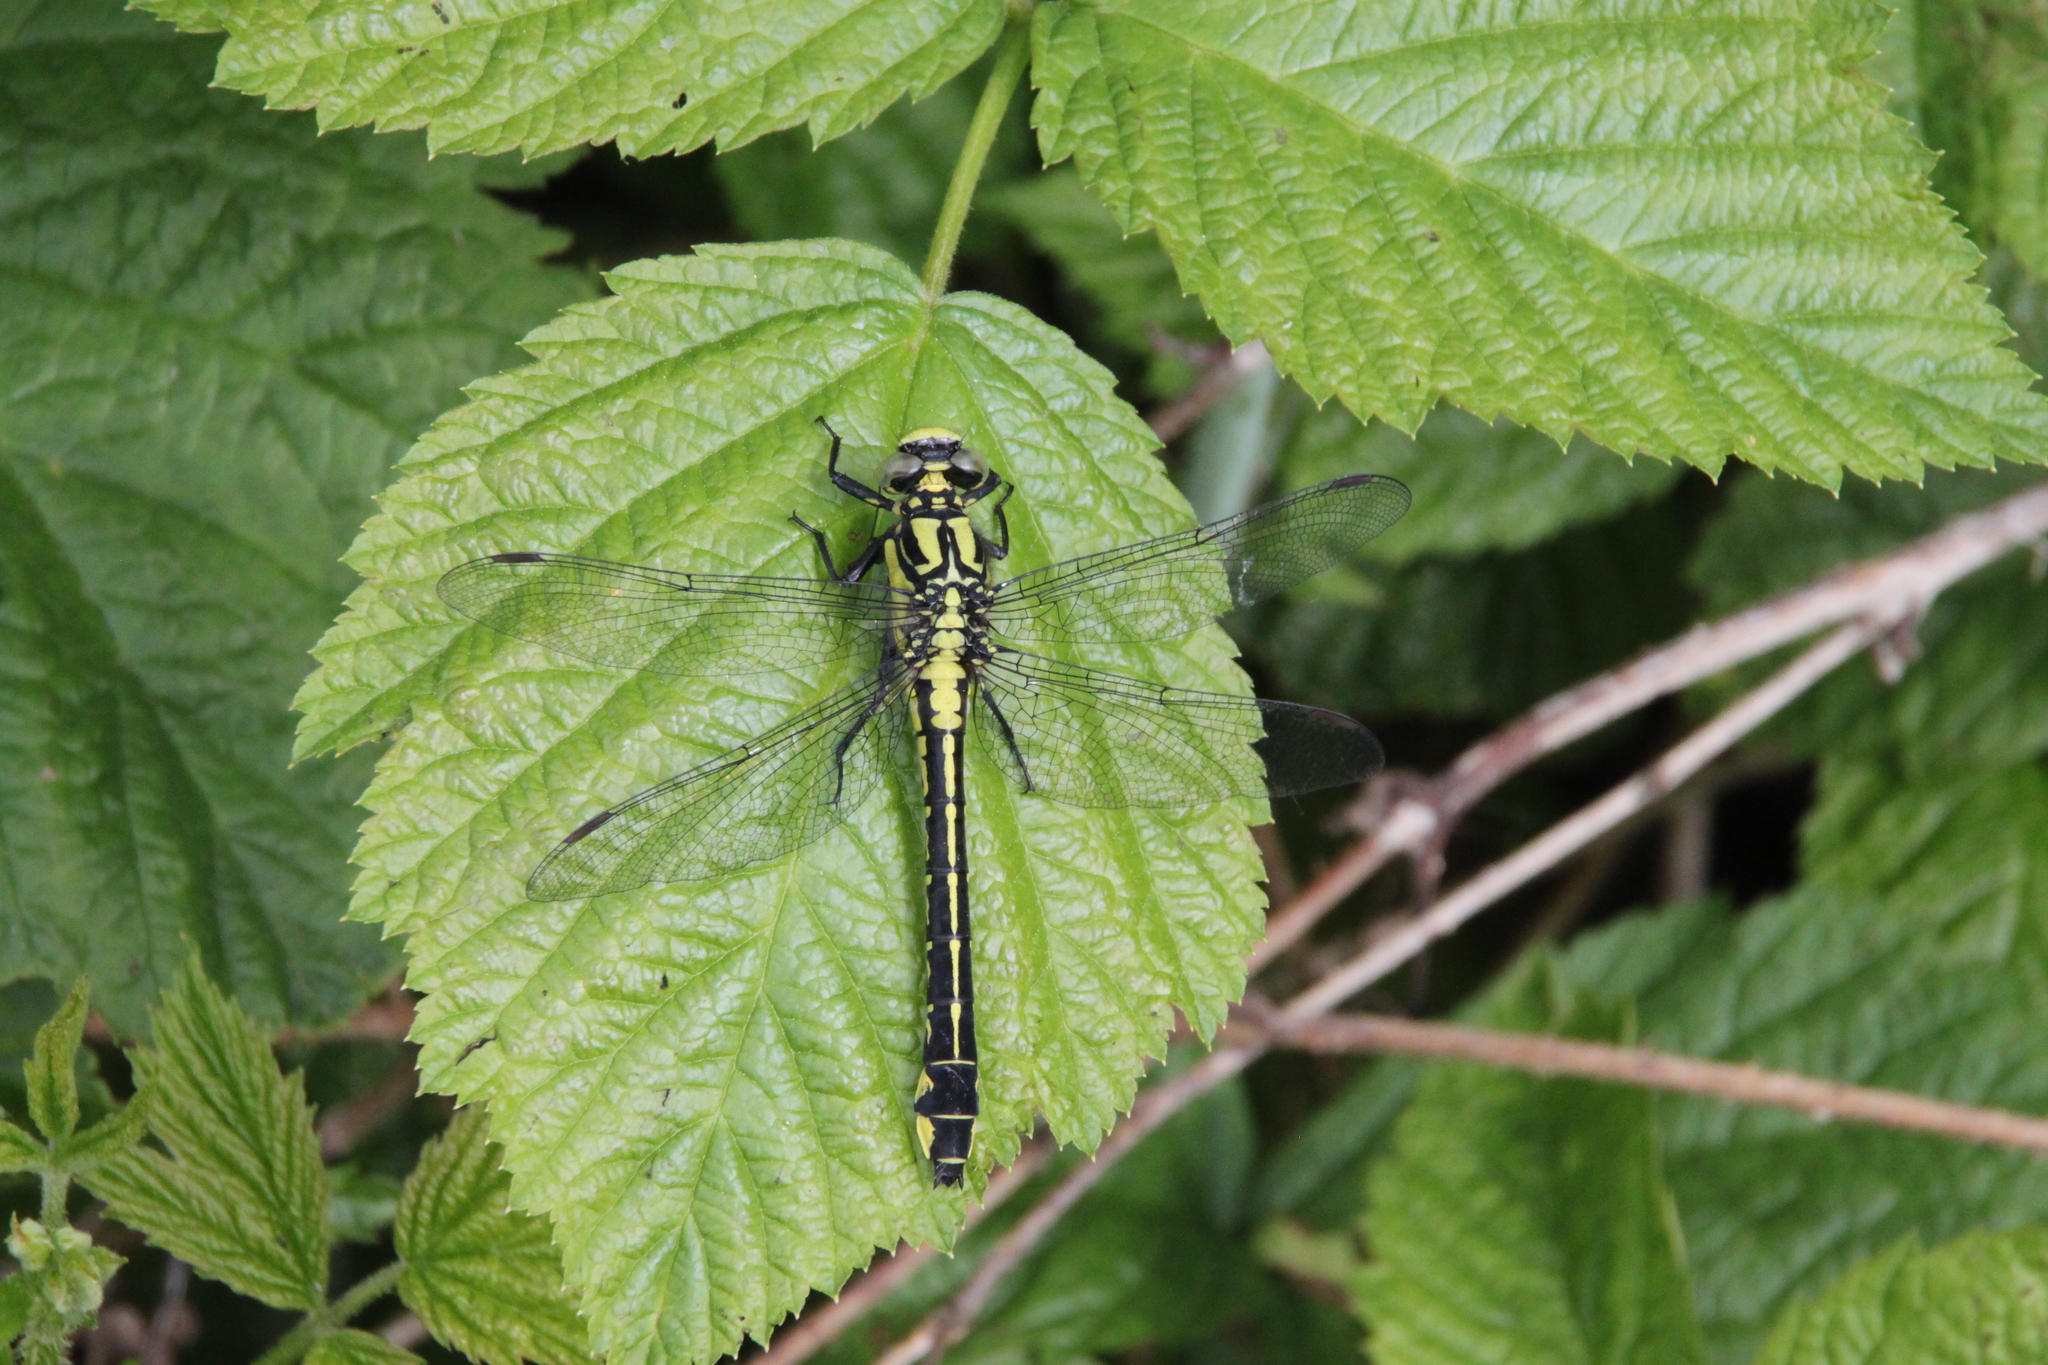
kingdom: Animalia
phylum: Arthropoda
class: Insecta
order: Odonata
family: Gomphidae
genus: Gomphus
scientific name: Gomphus vulgatissimus
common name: Club-tailed dragonfly
